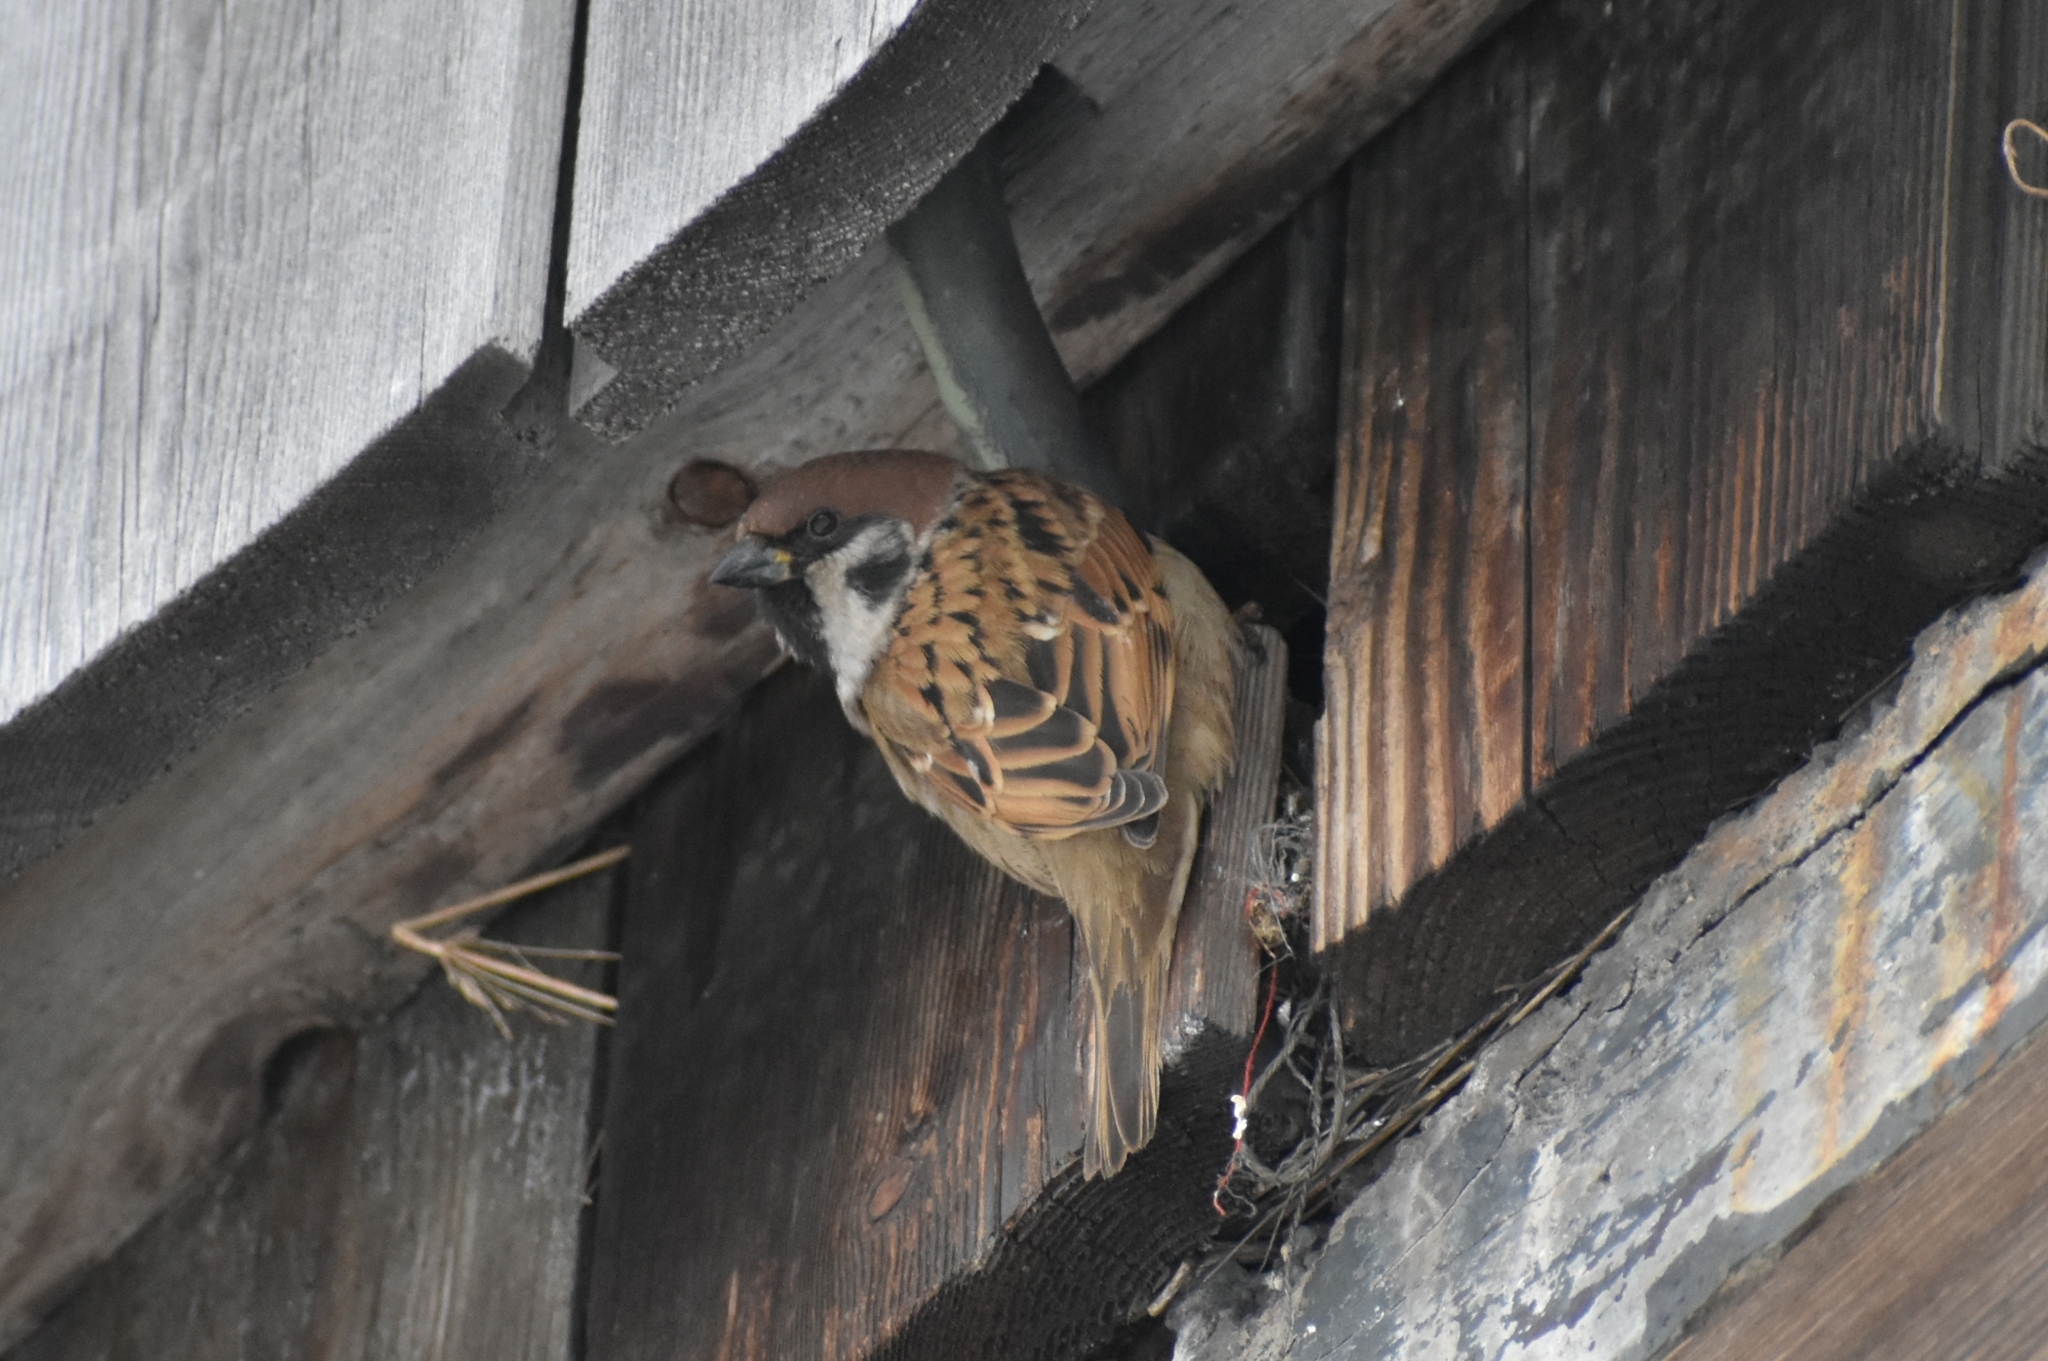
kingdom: Animalia
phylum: Chordata
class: Aves
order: Passeriformes
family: Passeridae
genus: Passer
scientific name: Passer montanus
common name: Eurasian tree sparrow
